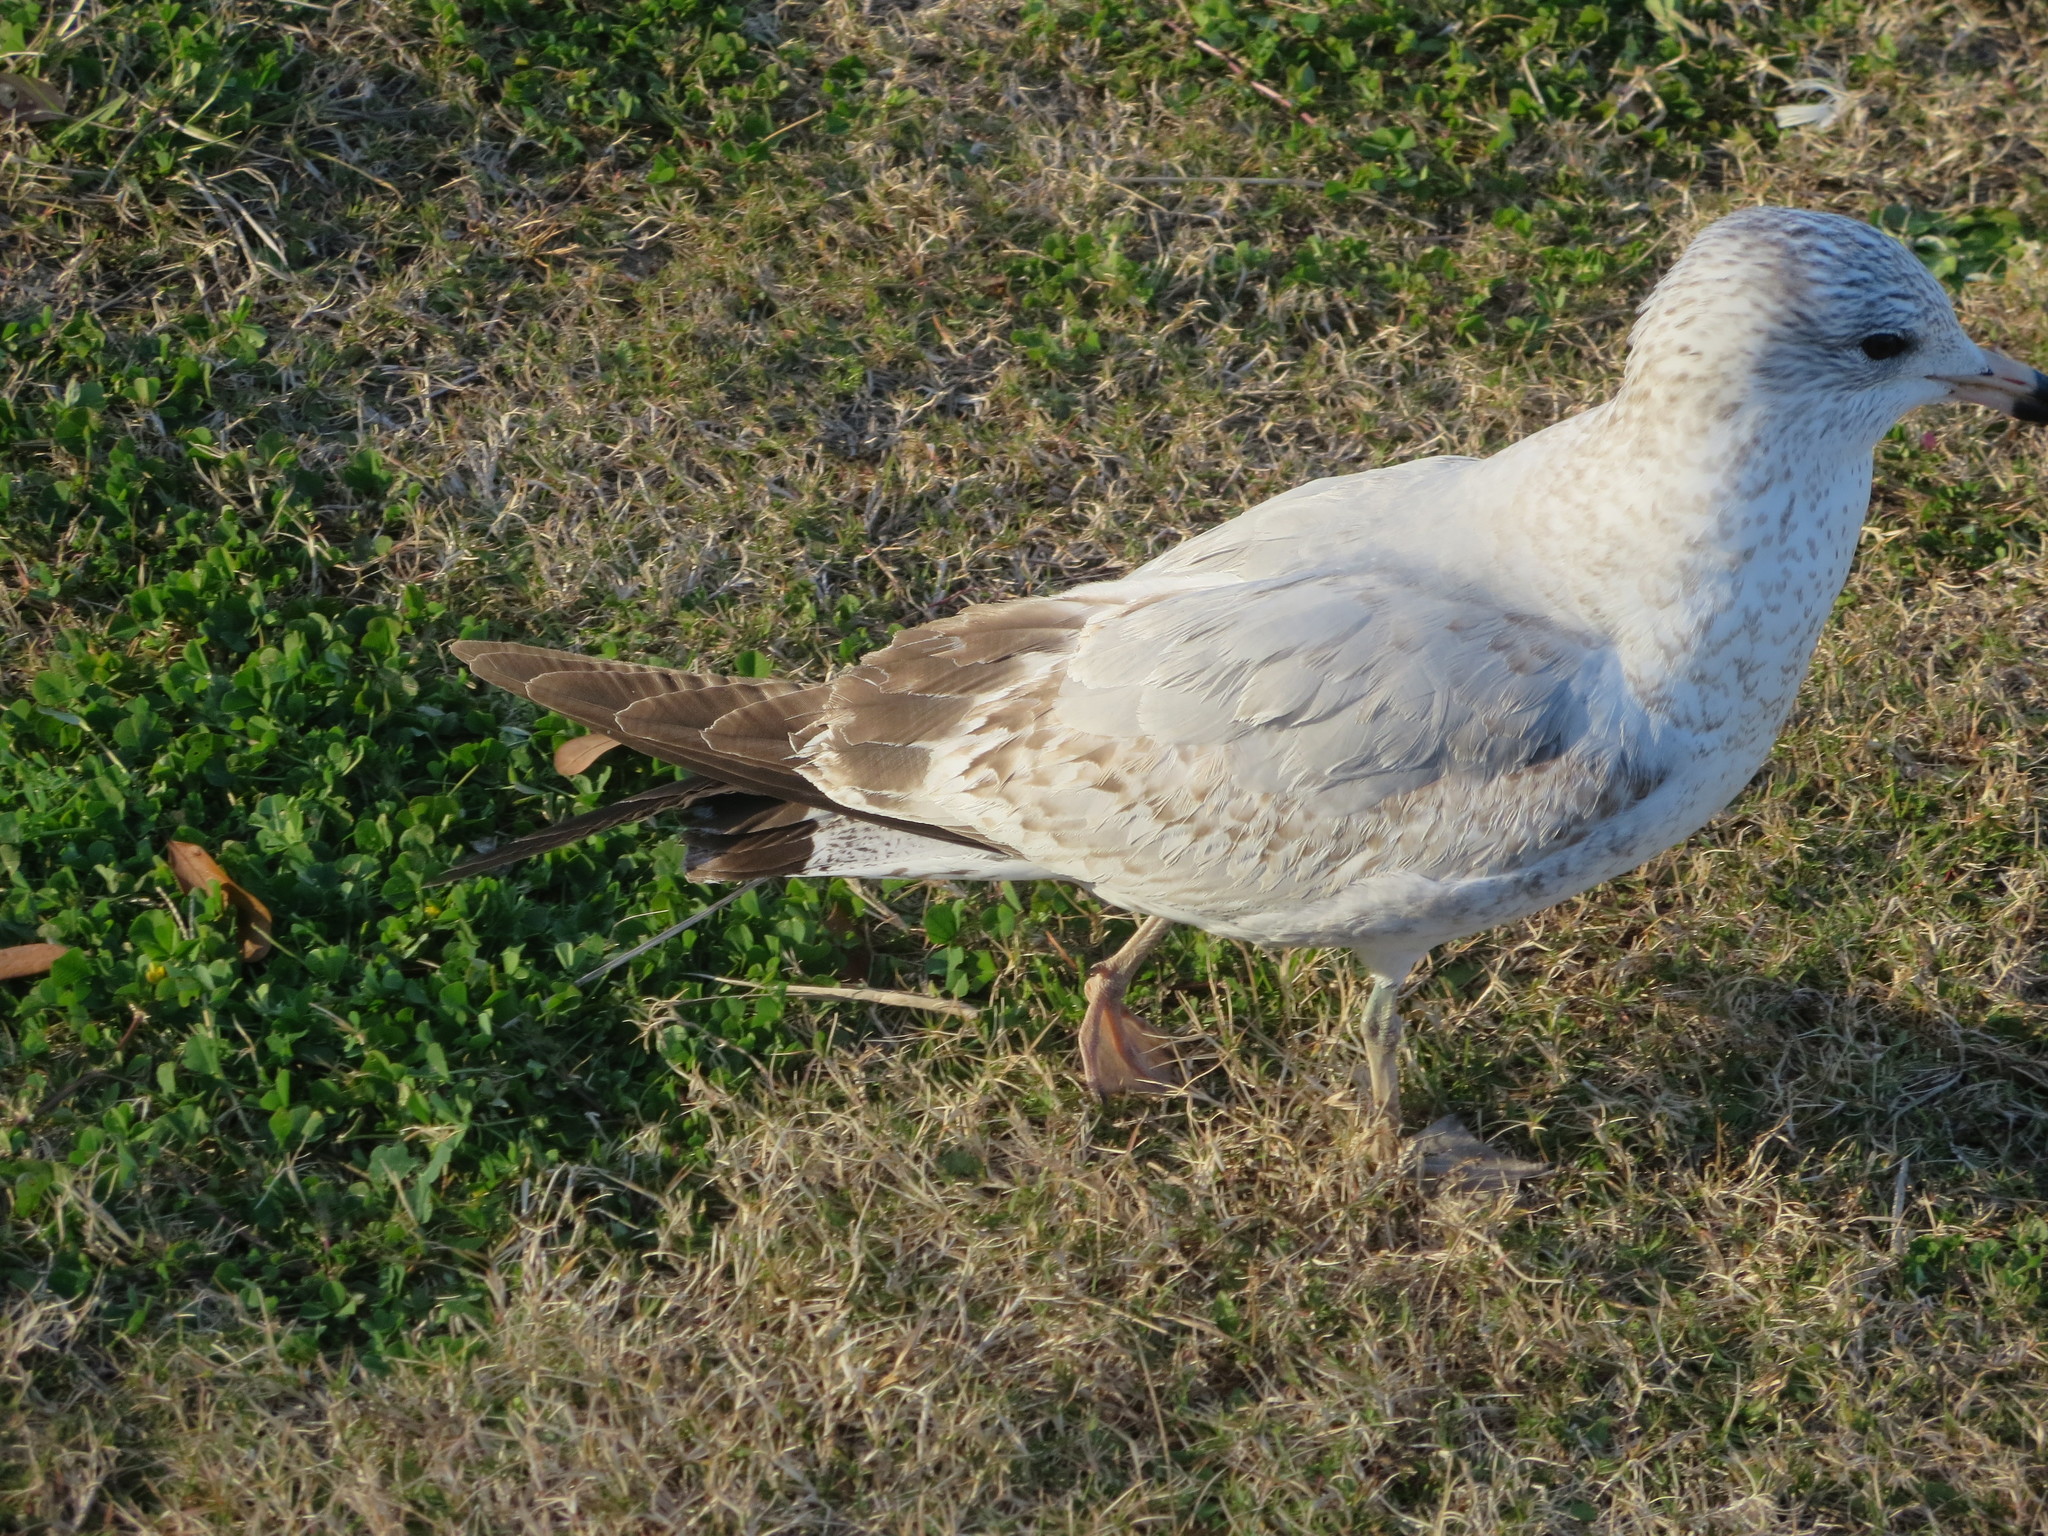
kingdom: Animalia
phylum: Chordata
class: Aves
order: Charadriiformes
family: Laridae
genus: Larus
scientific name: Larus delawarensis
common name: Ring-billed gull
